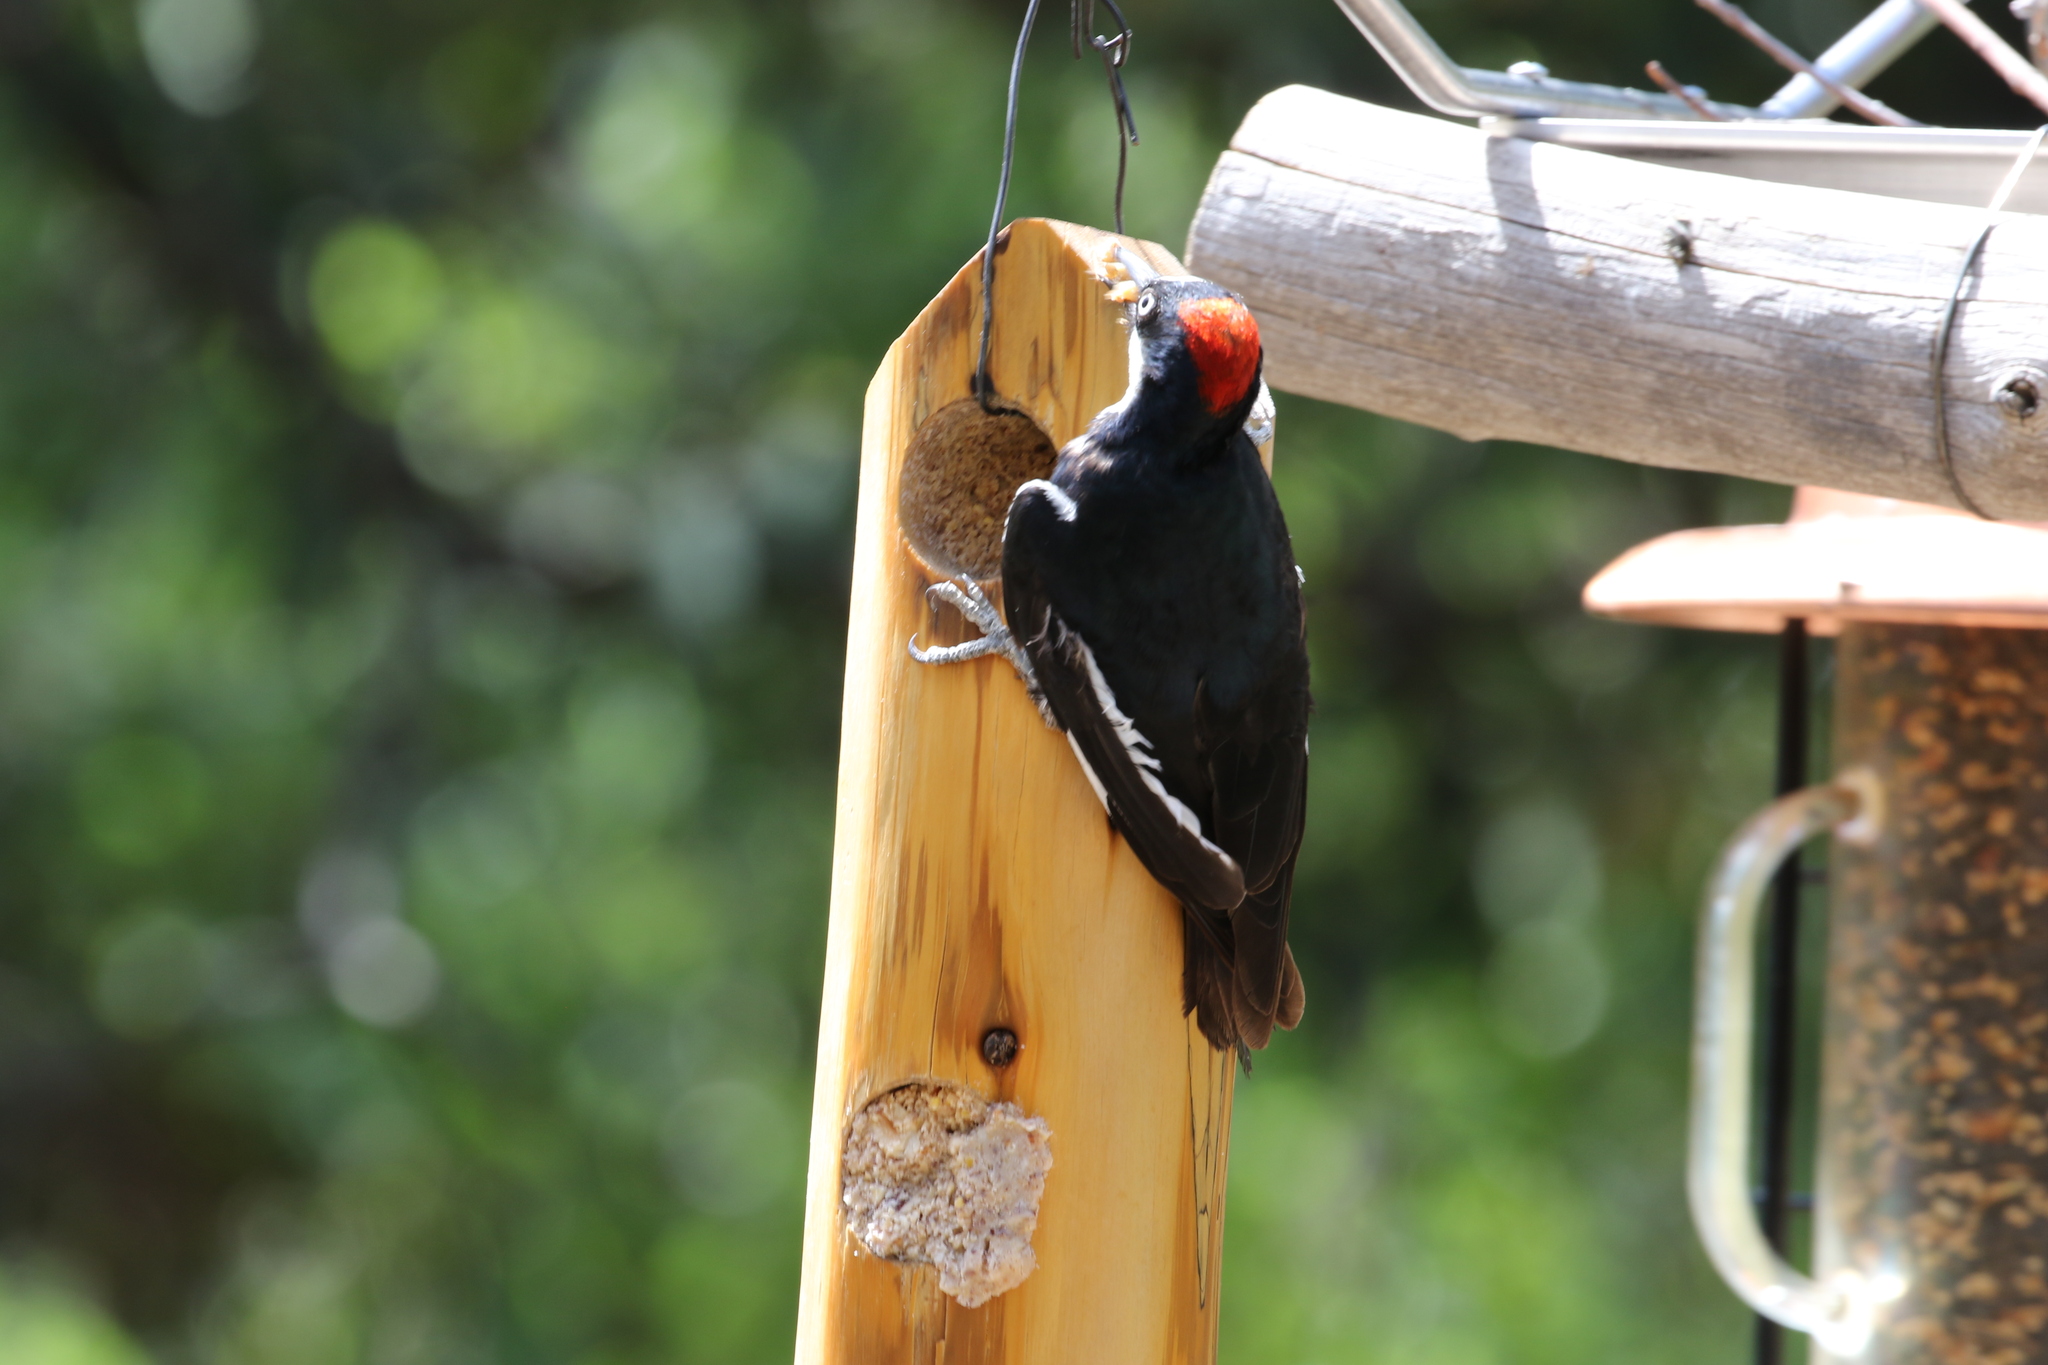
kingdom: Animalia
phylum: Chordata
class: Aves
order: Piciformes
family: Picidae
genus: Melanerpes
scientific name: Melanerpes formicivorus
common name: Acorn woodpecker
